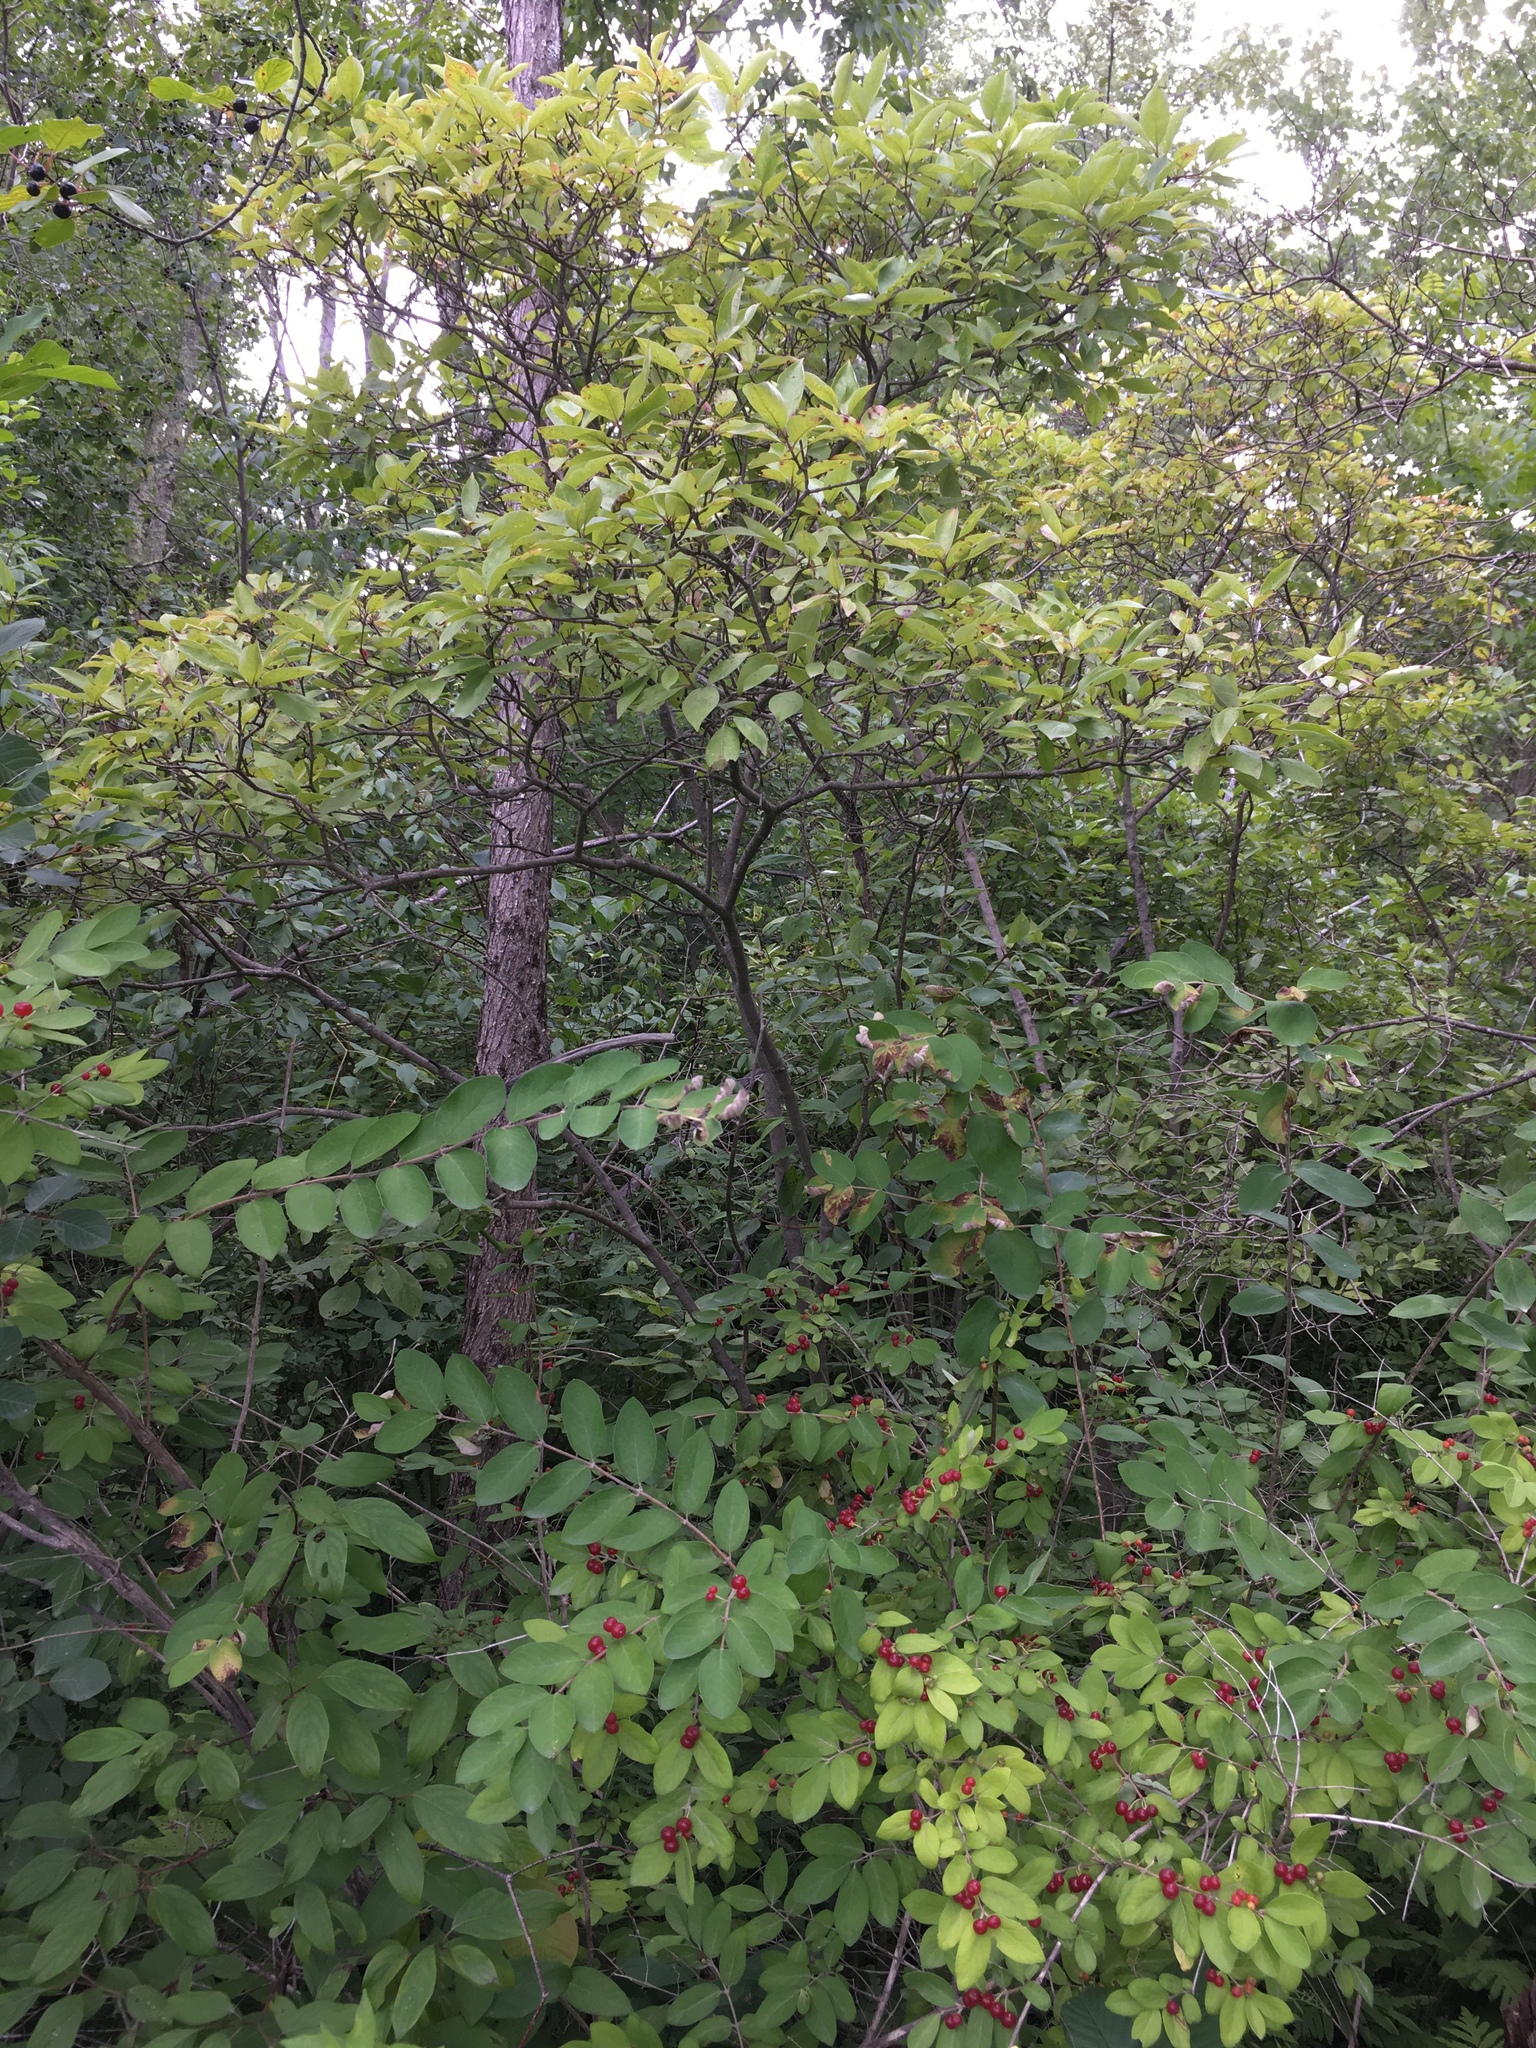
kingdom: Plantae
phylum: Tracheophyta
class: Magnoliopsida
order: Aquifoliales
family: Aquifoliaceae
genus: Ilex
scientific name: Ilex mucronata
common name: Catberry
